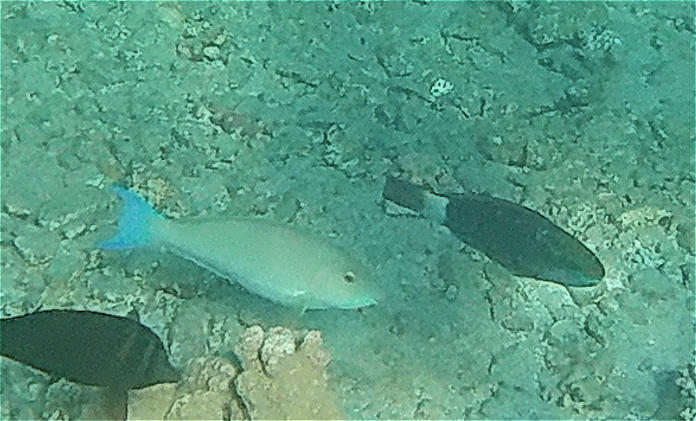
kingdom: Animalia
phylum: Chordata
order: Perciformes
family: Scaridae
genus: Hipposcarus
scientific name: Hipposcarus harid
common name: Candelamoa parrotfish
